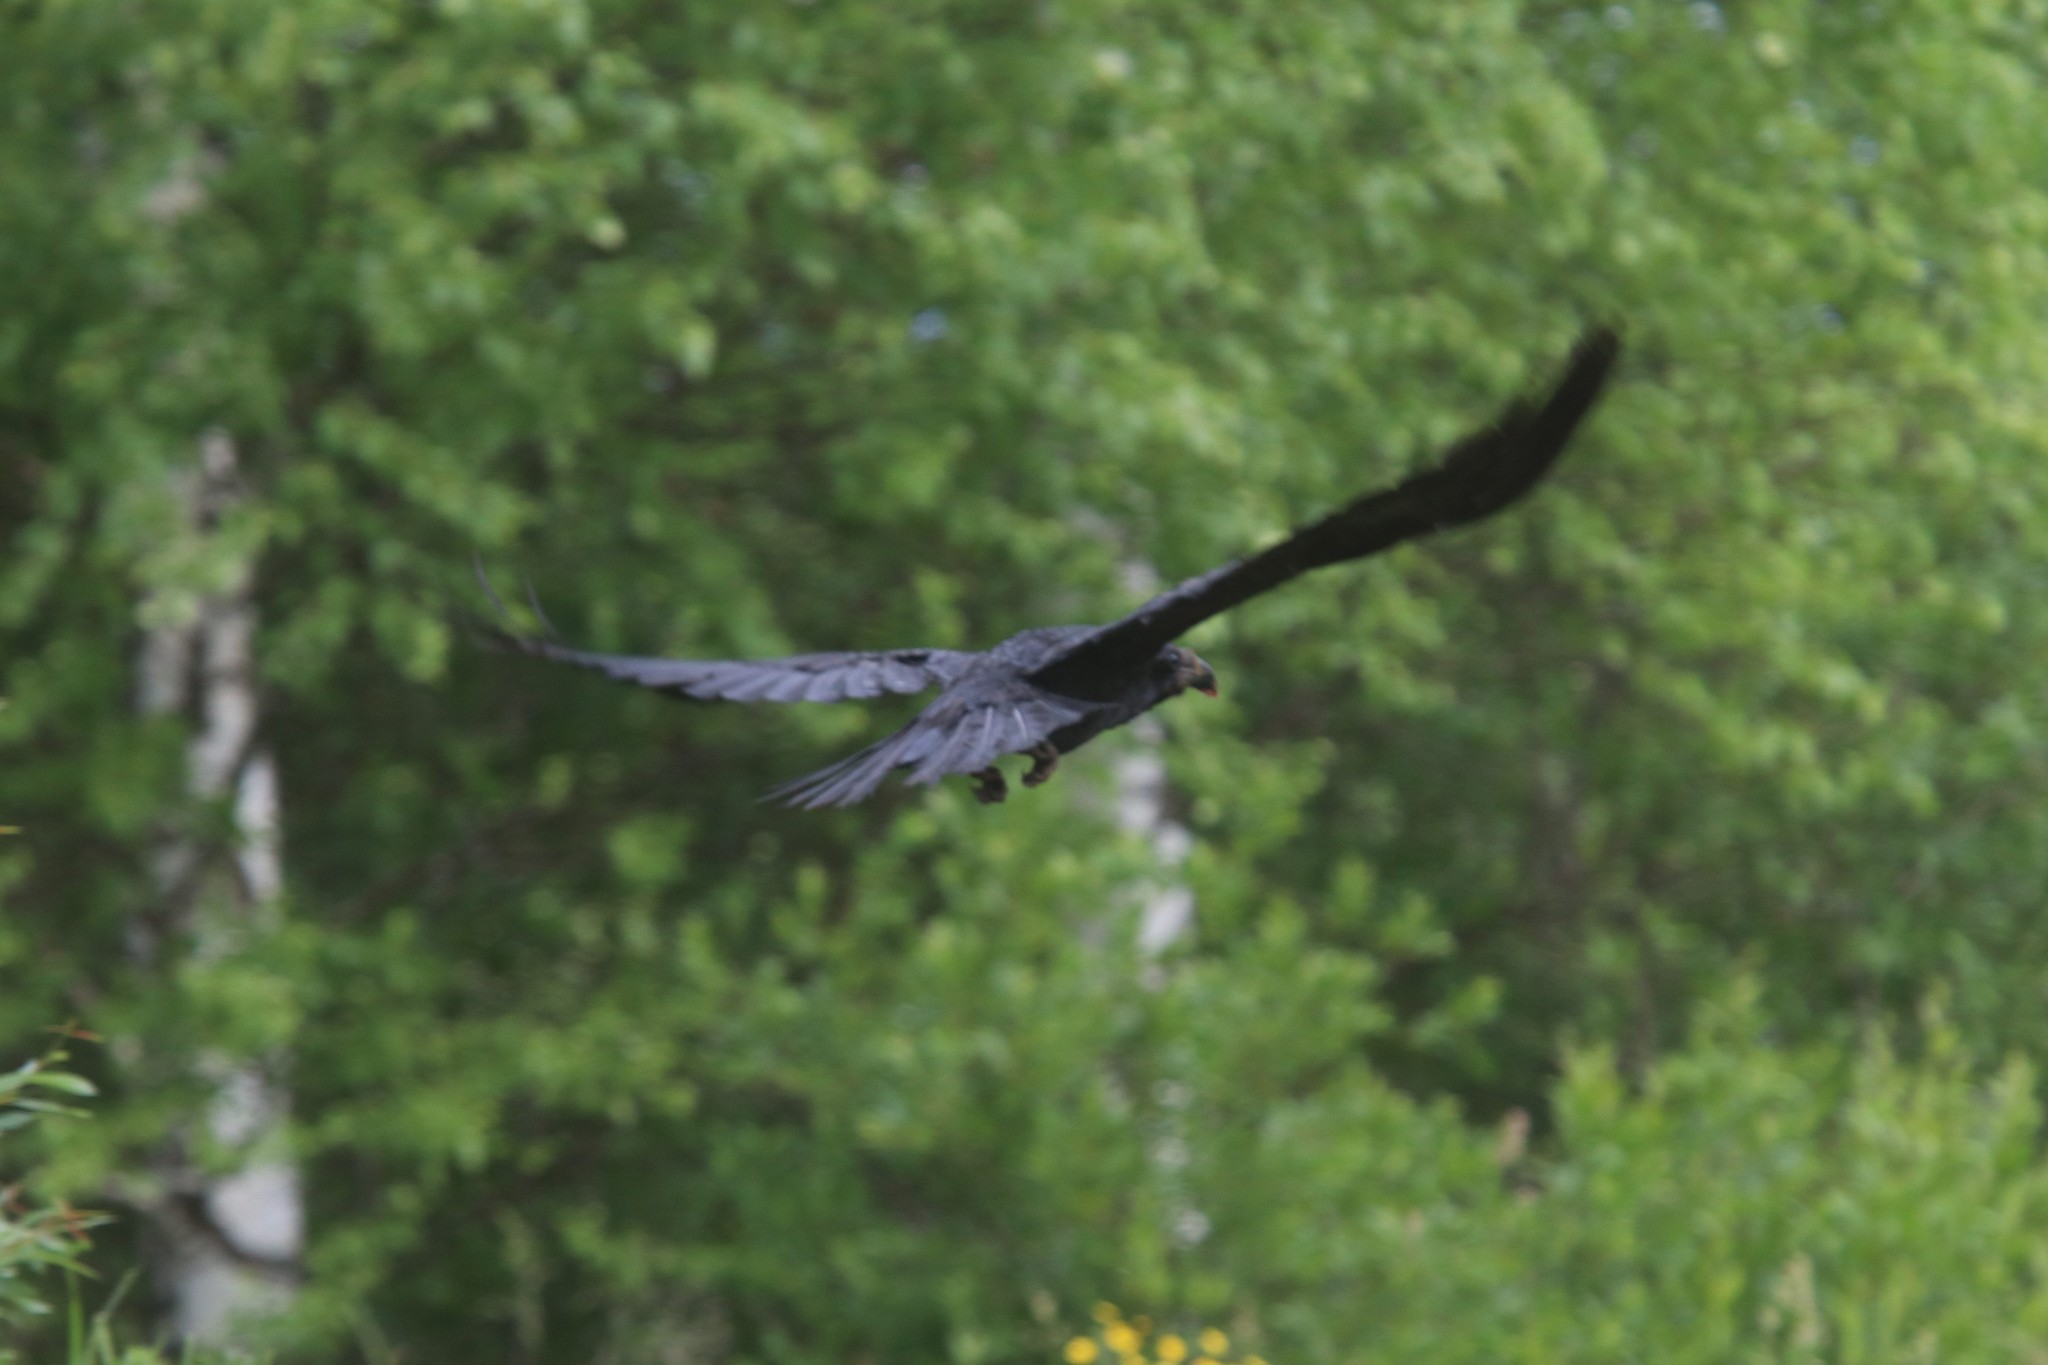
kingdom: Animalia
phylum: Chordata
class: Aves
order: Passeriformes
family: Corvidae
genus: Corvus
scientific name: Corvus corax
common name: Common raven
